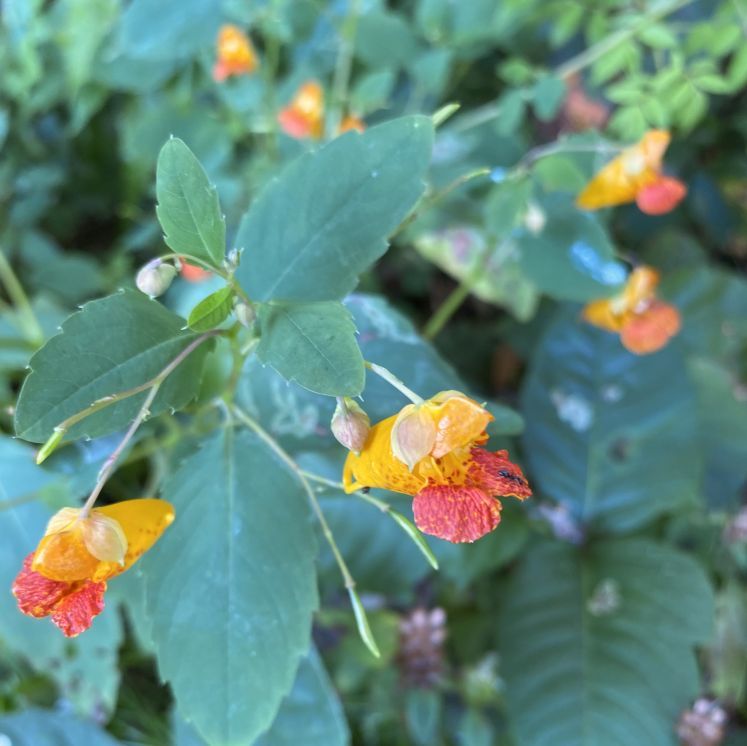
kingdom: Plantae
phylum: Tracheophyta
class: Magnoliopsida
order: Ericales
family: Balsaminaceae
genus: Impatiens
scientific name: Impatiens capensis
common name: Orange balsam
